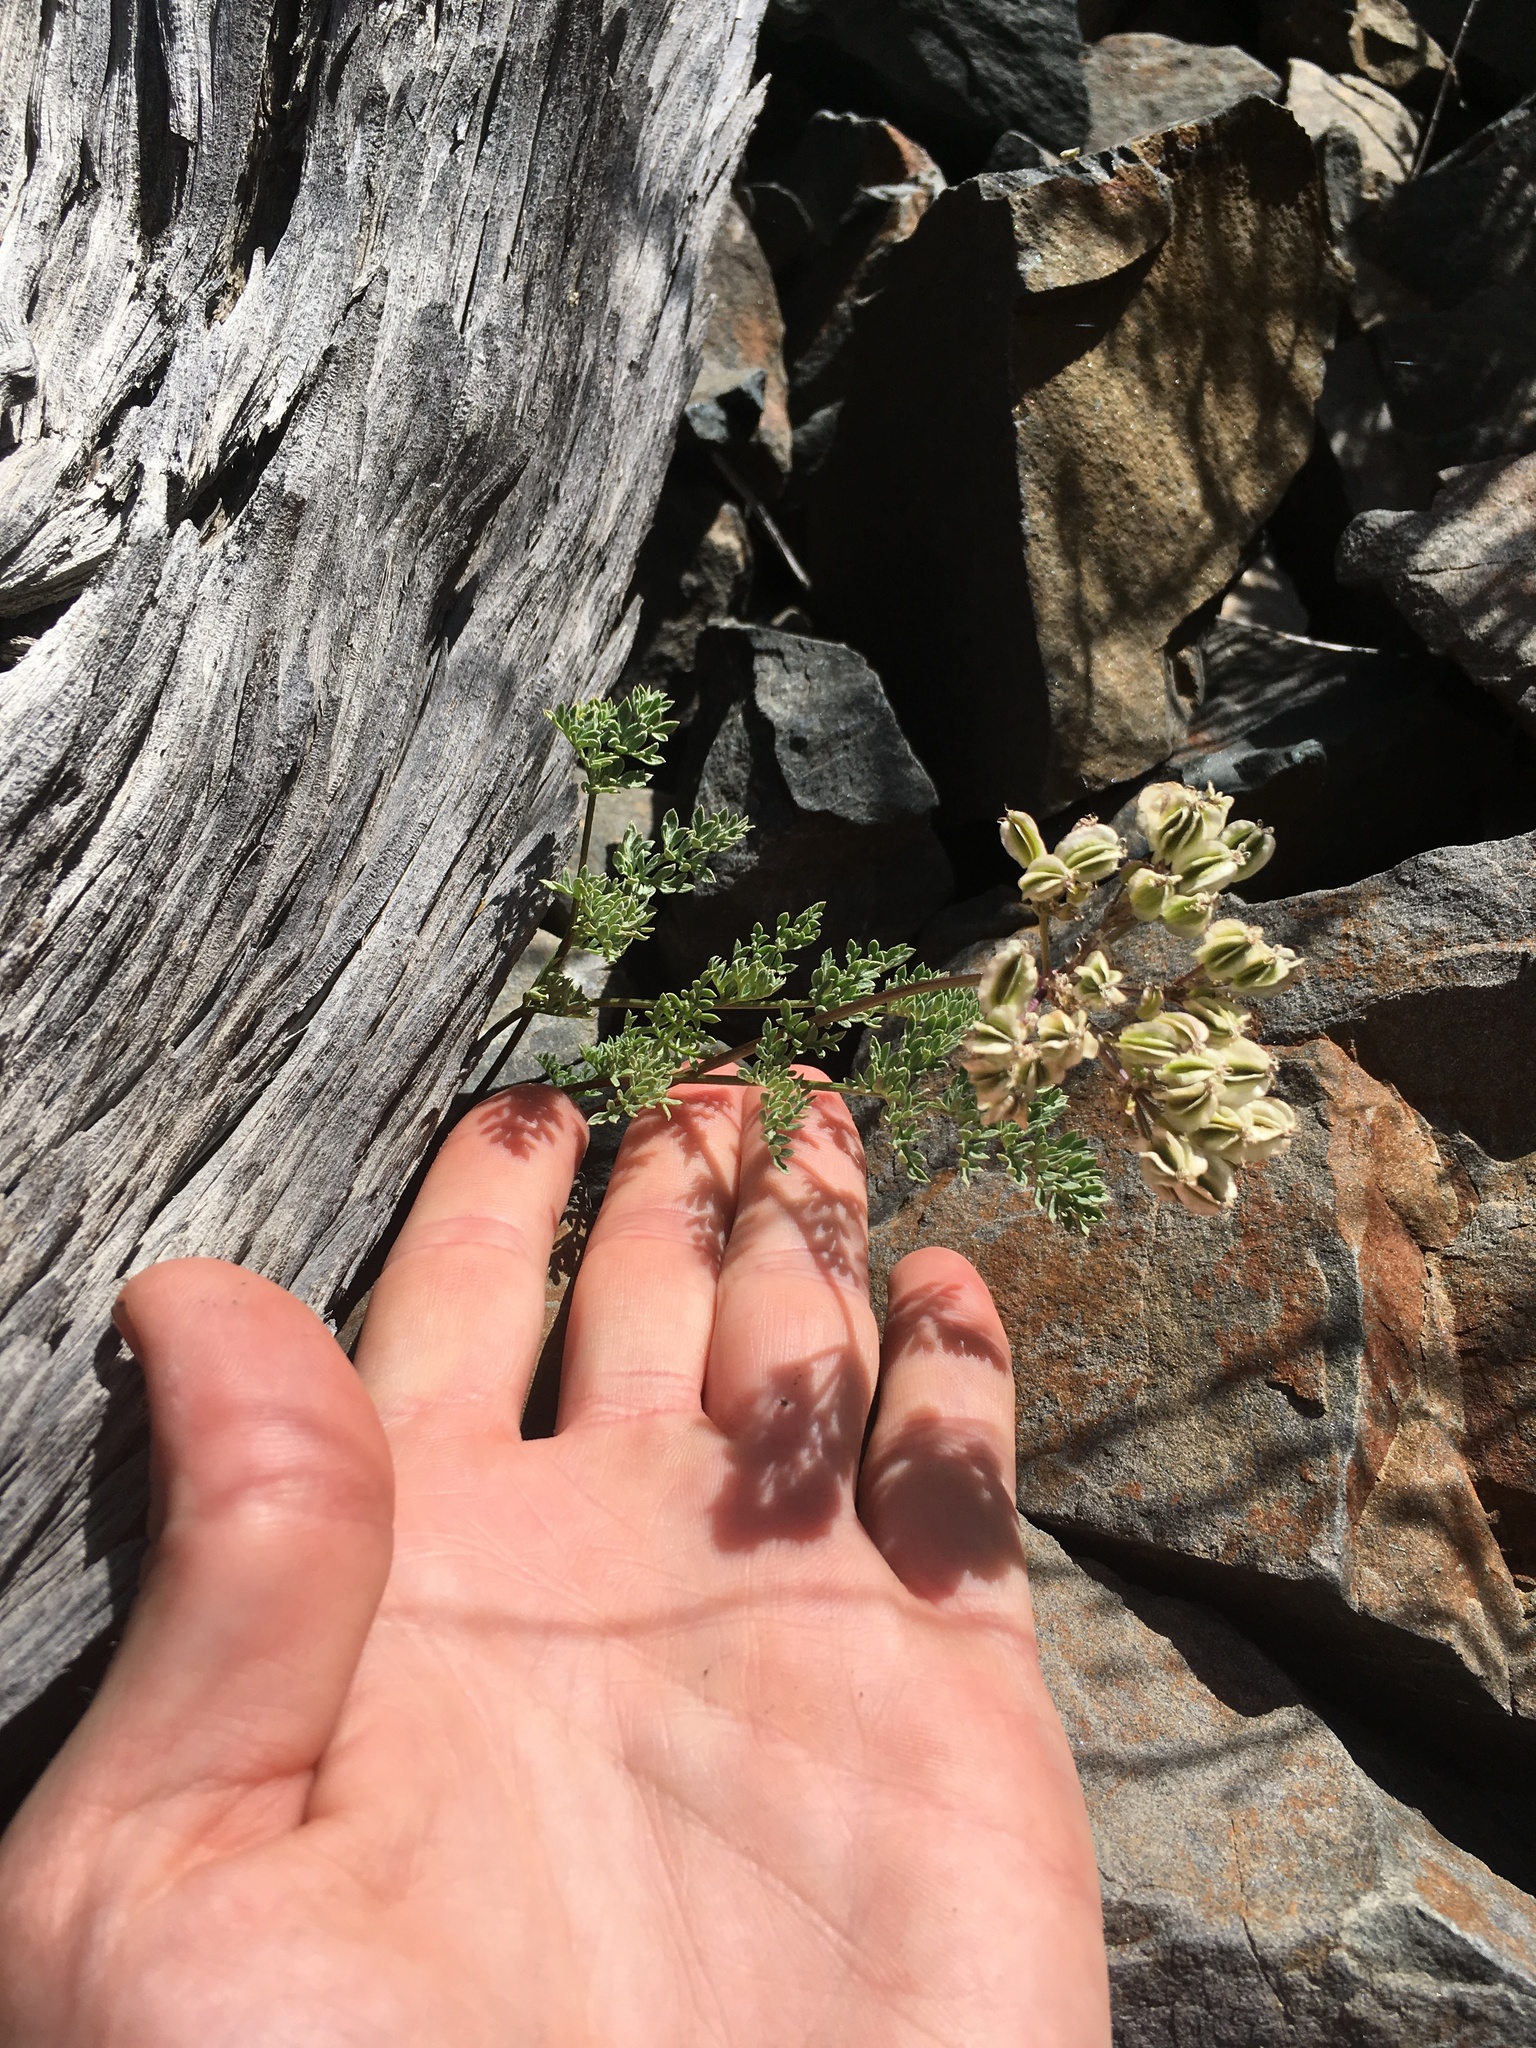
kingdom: Plantae
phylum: Tracheophyta
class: Magnoliopsida
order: Apiales
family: Apiaceae
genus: Aulospermum
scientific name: Aulospermum aboriginum
